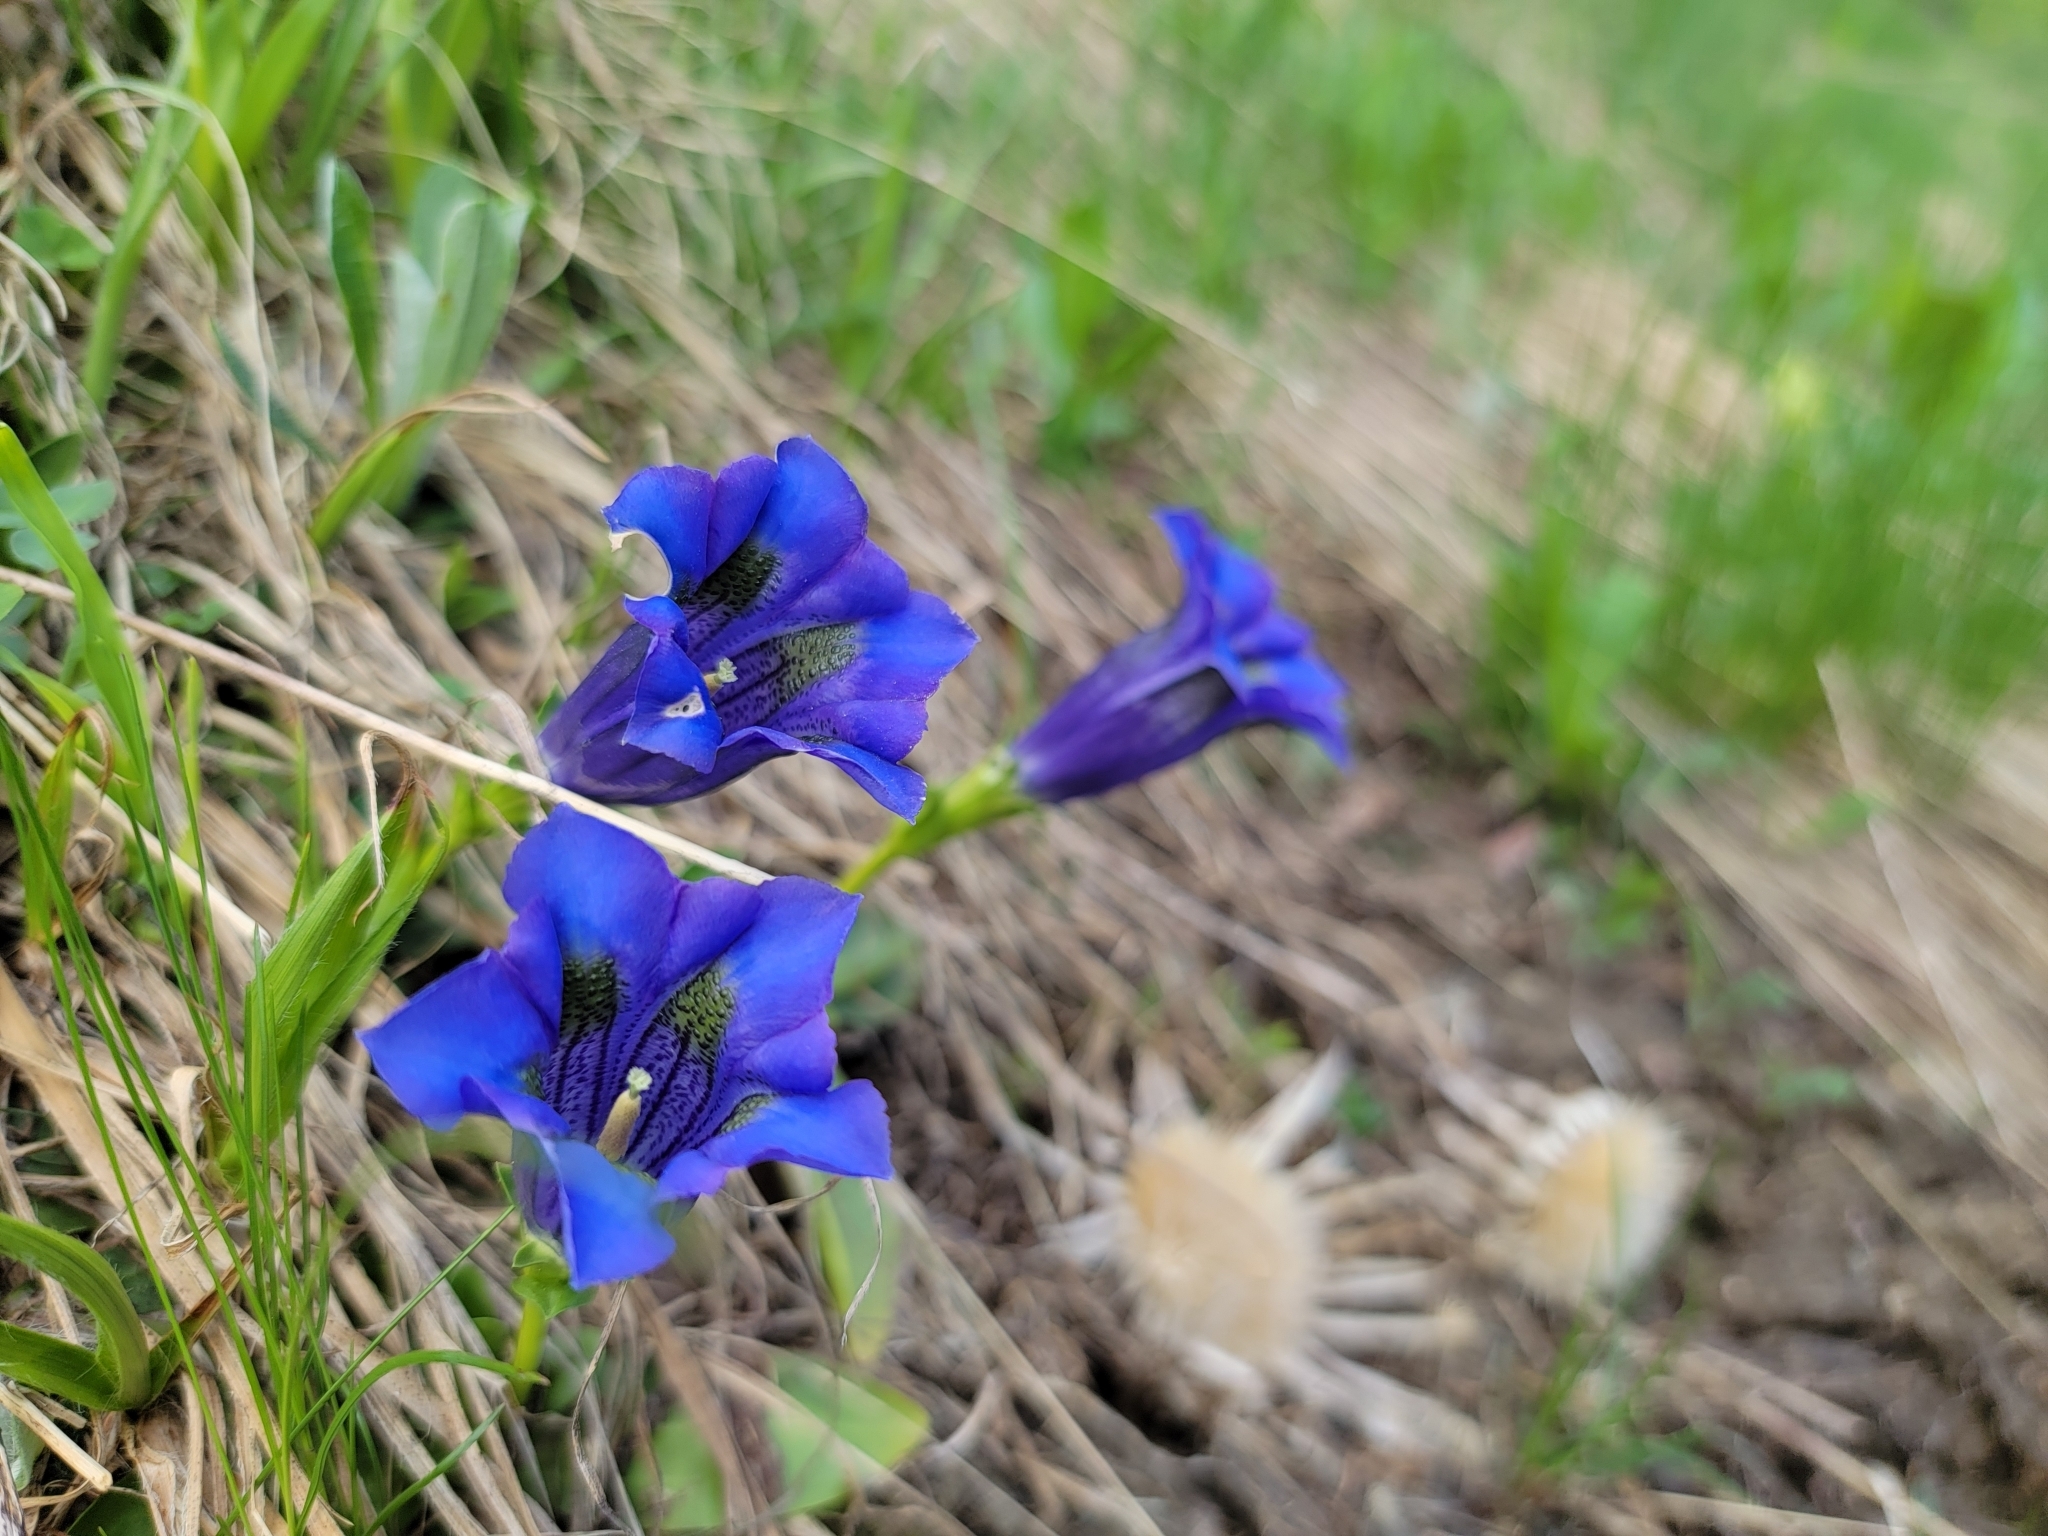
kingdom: Plantae
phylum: Tracheophyta
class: Magnoliopsida
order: Gentianales
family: Gentianaceae
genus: Gentiana
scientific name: Gentiana acaulis
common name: Trumpet gentian
